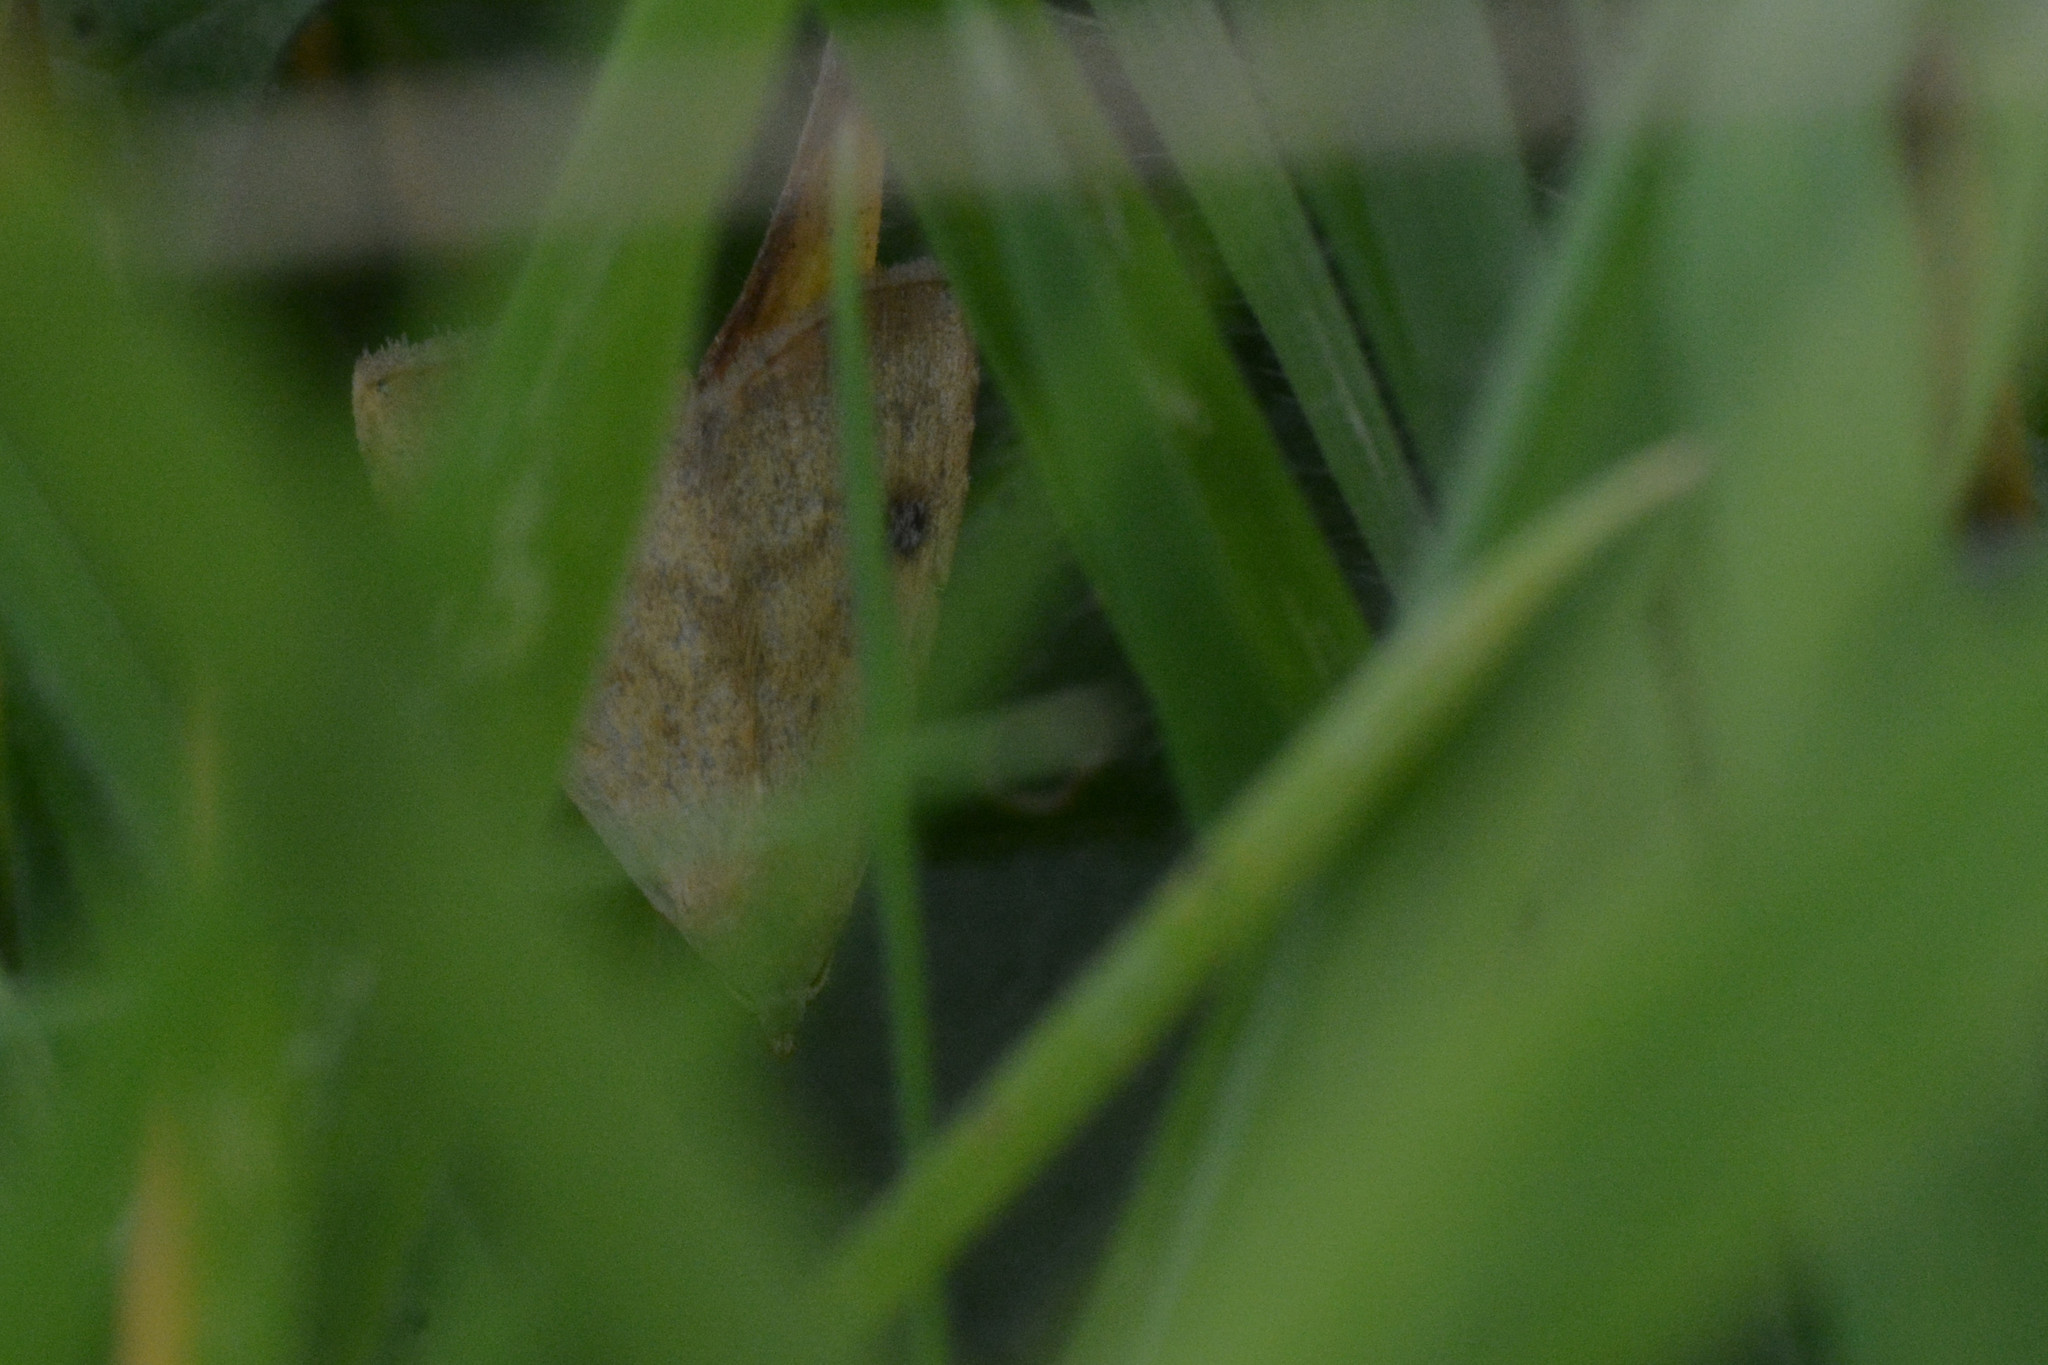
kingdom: Animalia
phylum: Arthropoda
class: Insecta
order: Lepidoptera
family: Erebidae
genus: Rivula
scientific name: Rivula sericealis
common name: Straw dot
